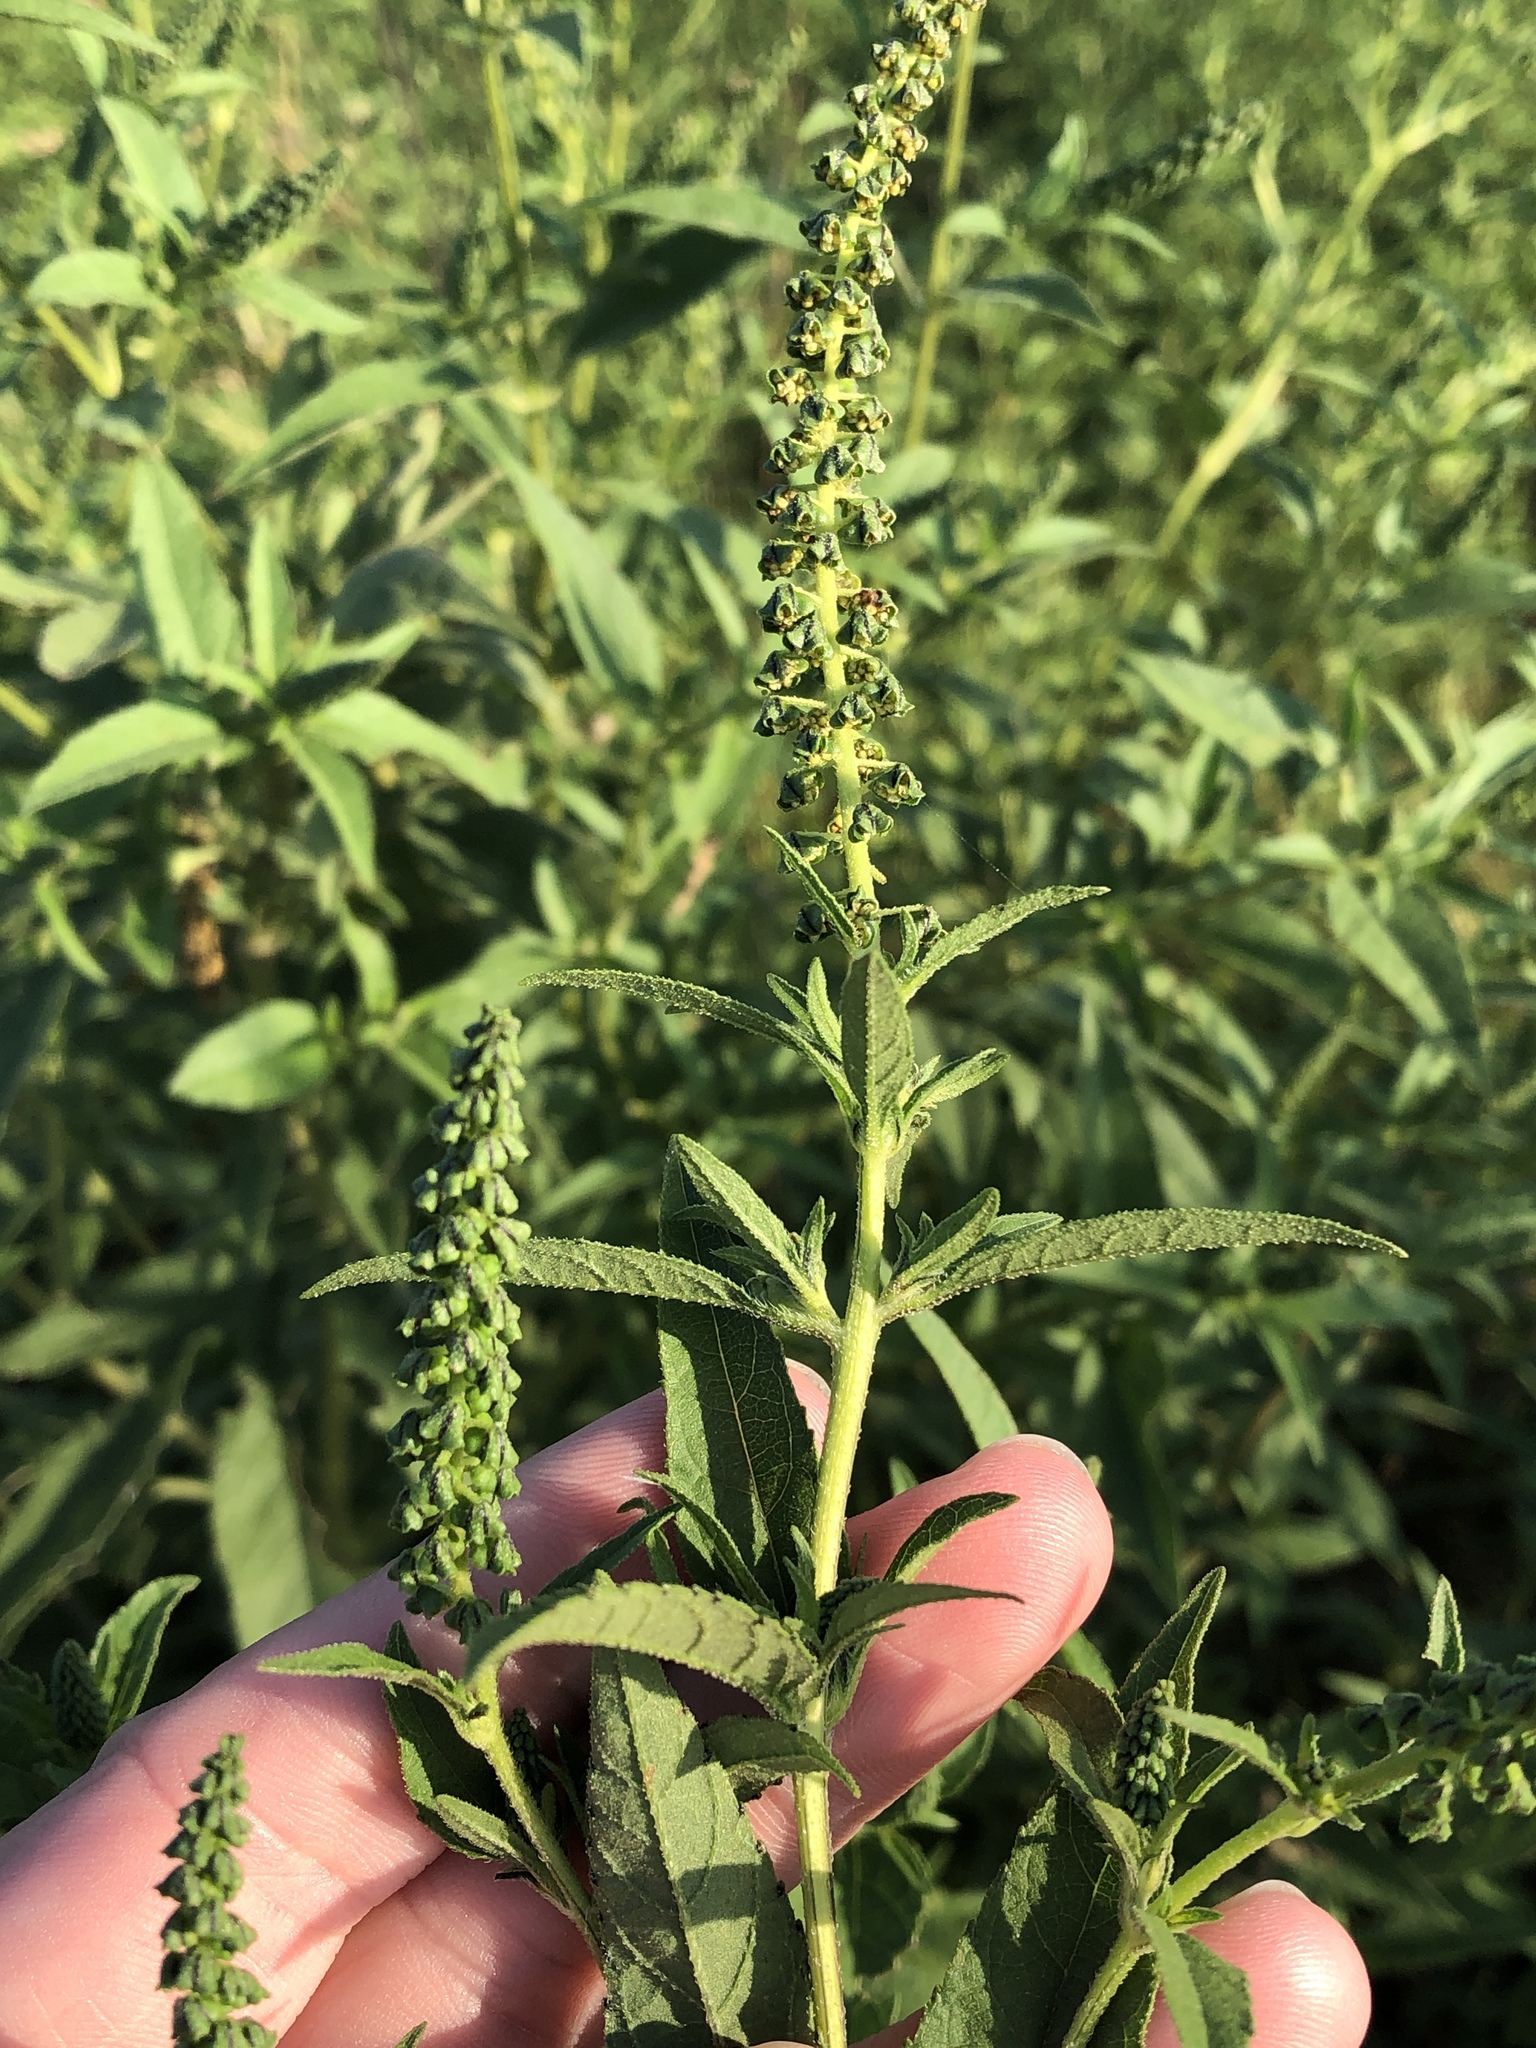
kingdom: Plantae
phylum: Tracheophyta
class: Magnoliopsida
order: Asterales
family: Asteraceae
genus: Ambrosia
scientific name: Ambrosia trifida
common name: Giant ragweed
